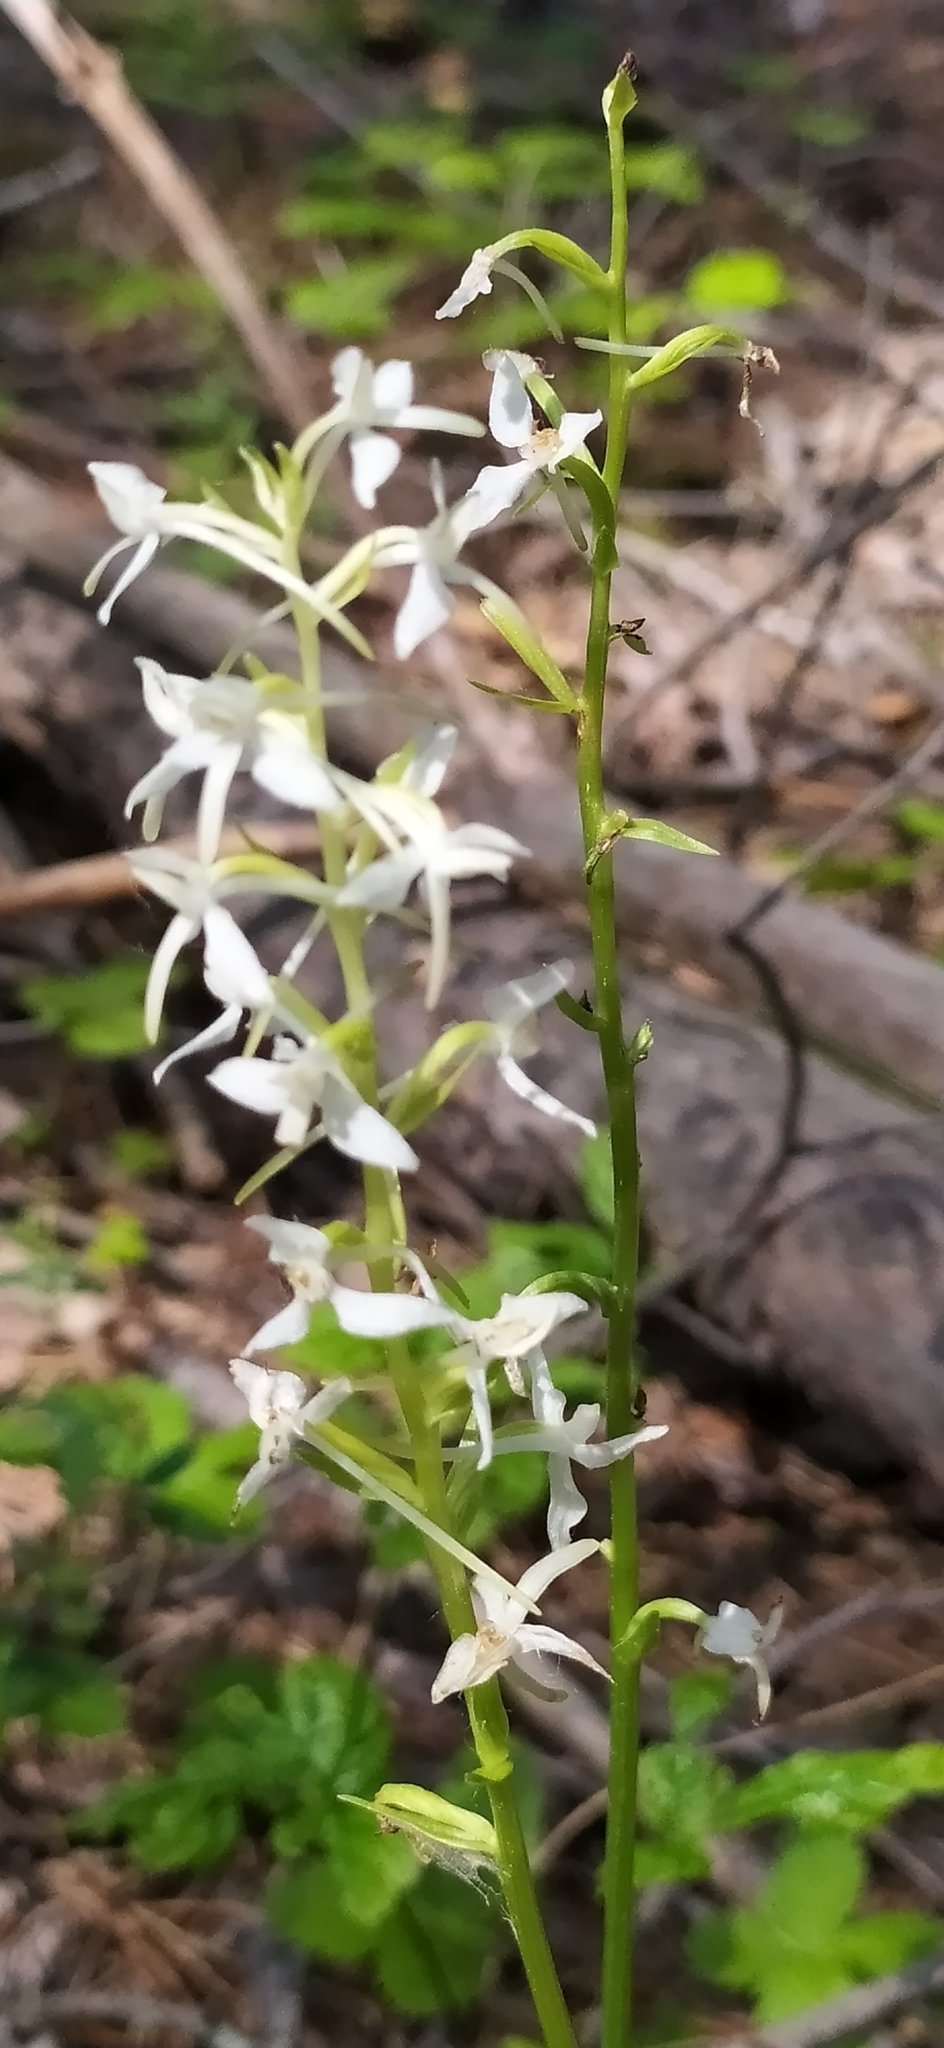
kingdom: Plantae
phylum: Tracheophyta
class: Liliopsida
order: Asparagales
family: Orchidaceae
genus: Platanthera
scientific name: Platanthera bifolia
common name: Lesser butterfly-orchid
